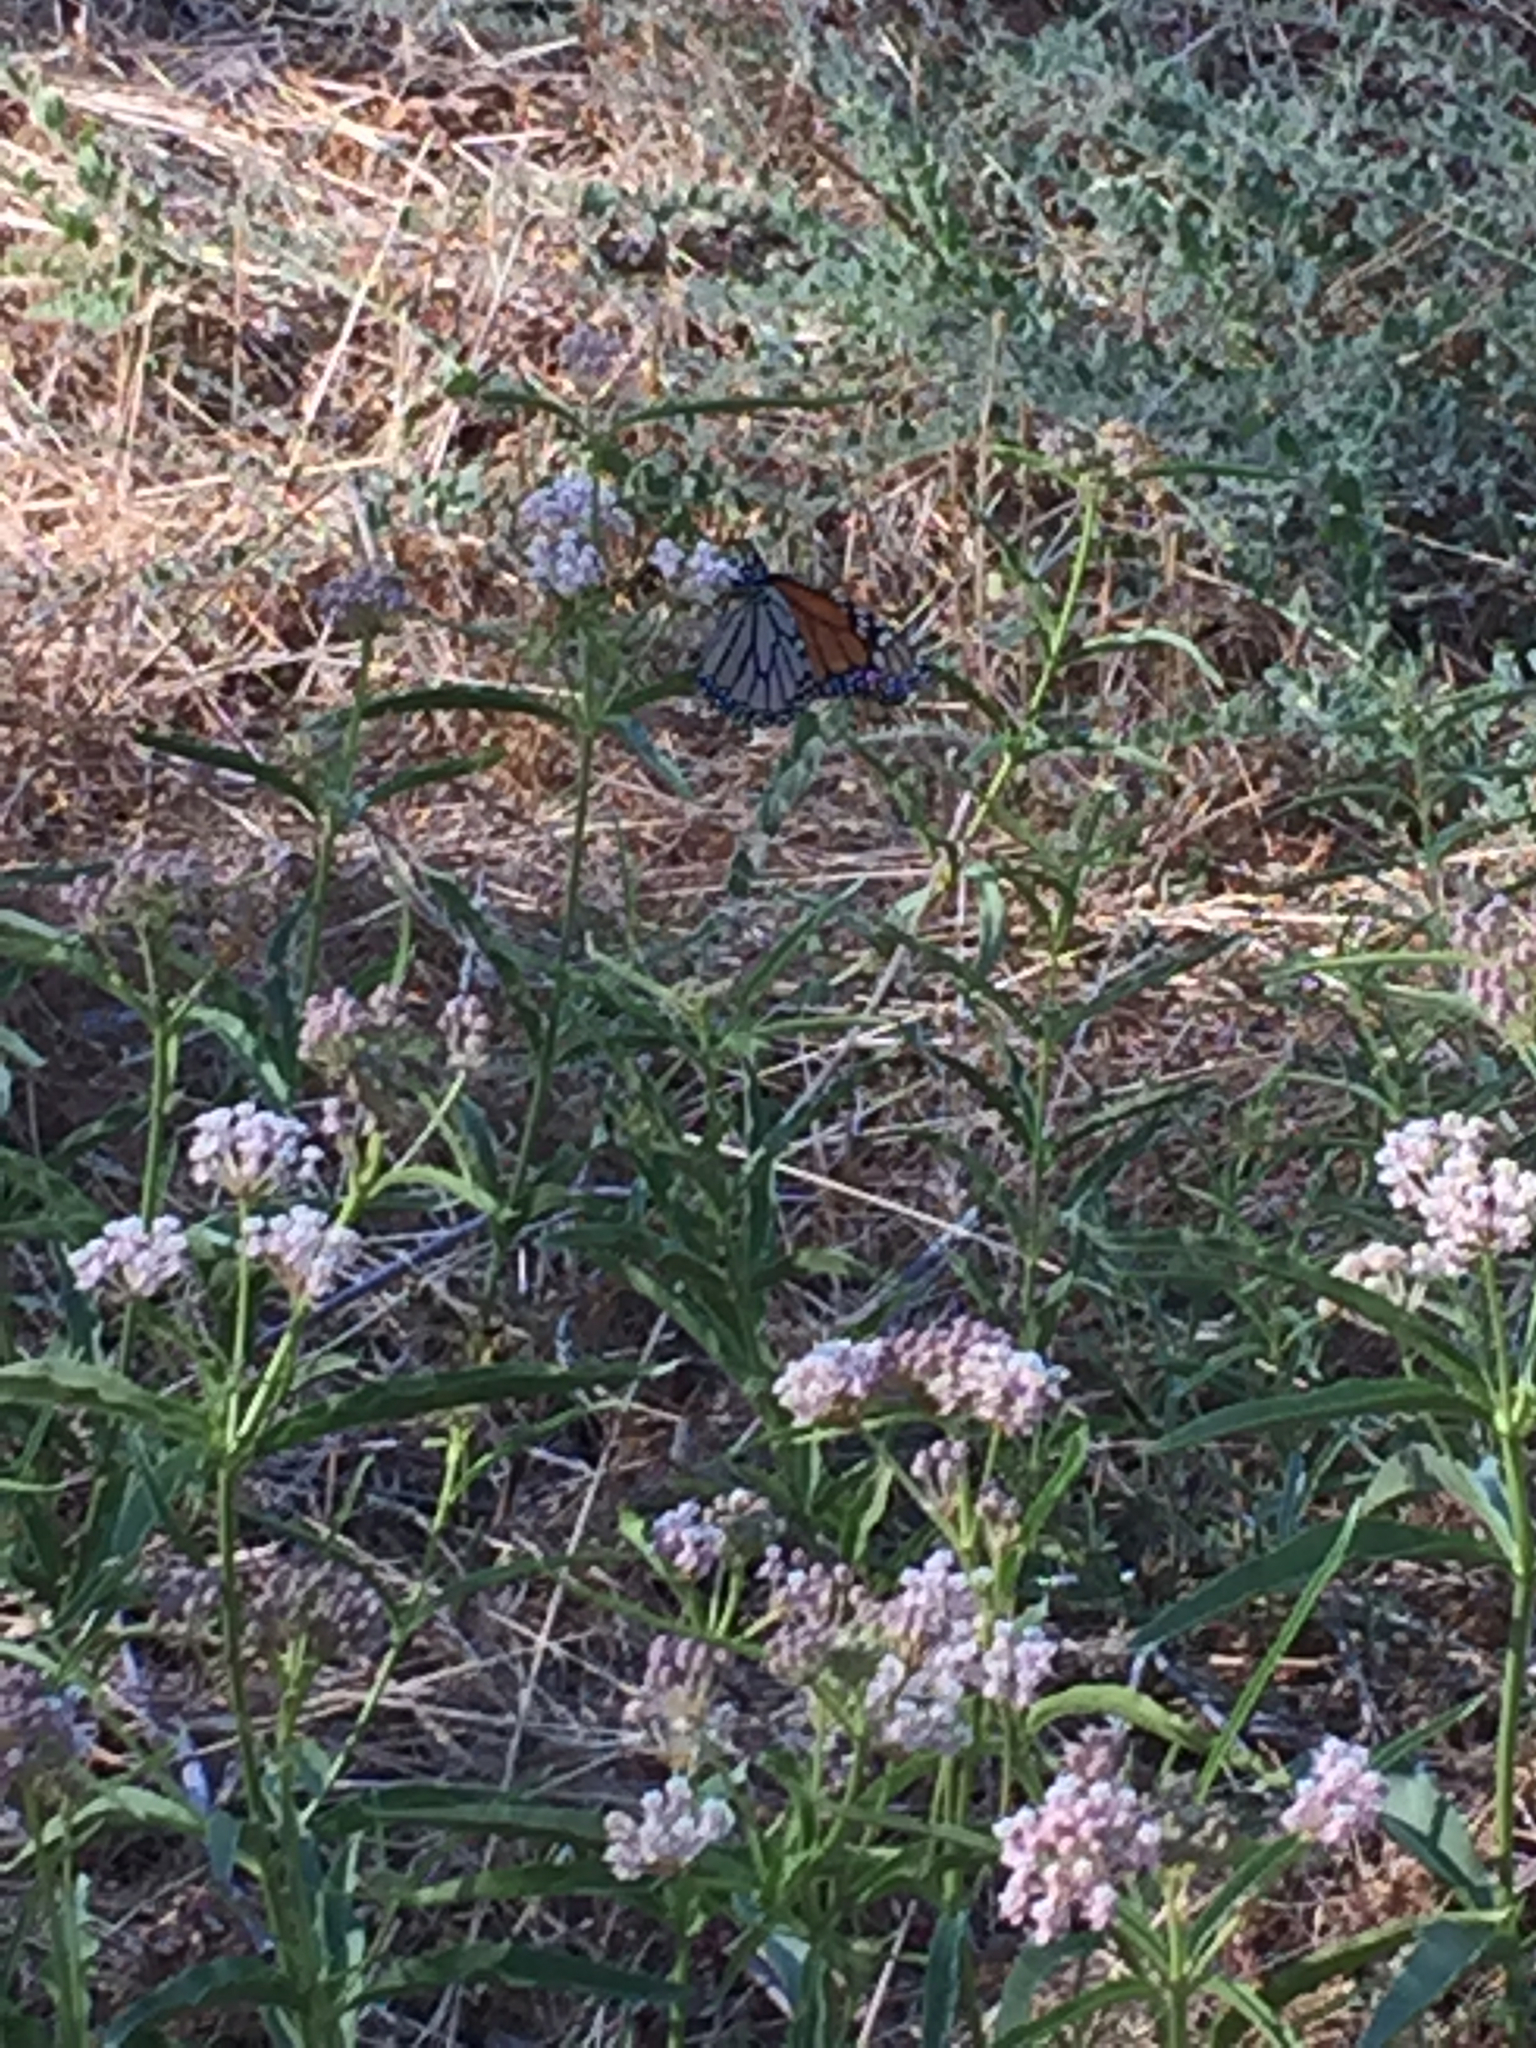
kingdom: Animalia
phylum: Arthropoda
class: Insecta
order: Lepidoptera
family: Nymphalidae
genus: Danaus
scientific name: Danaus plexippus
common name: Monarch
